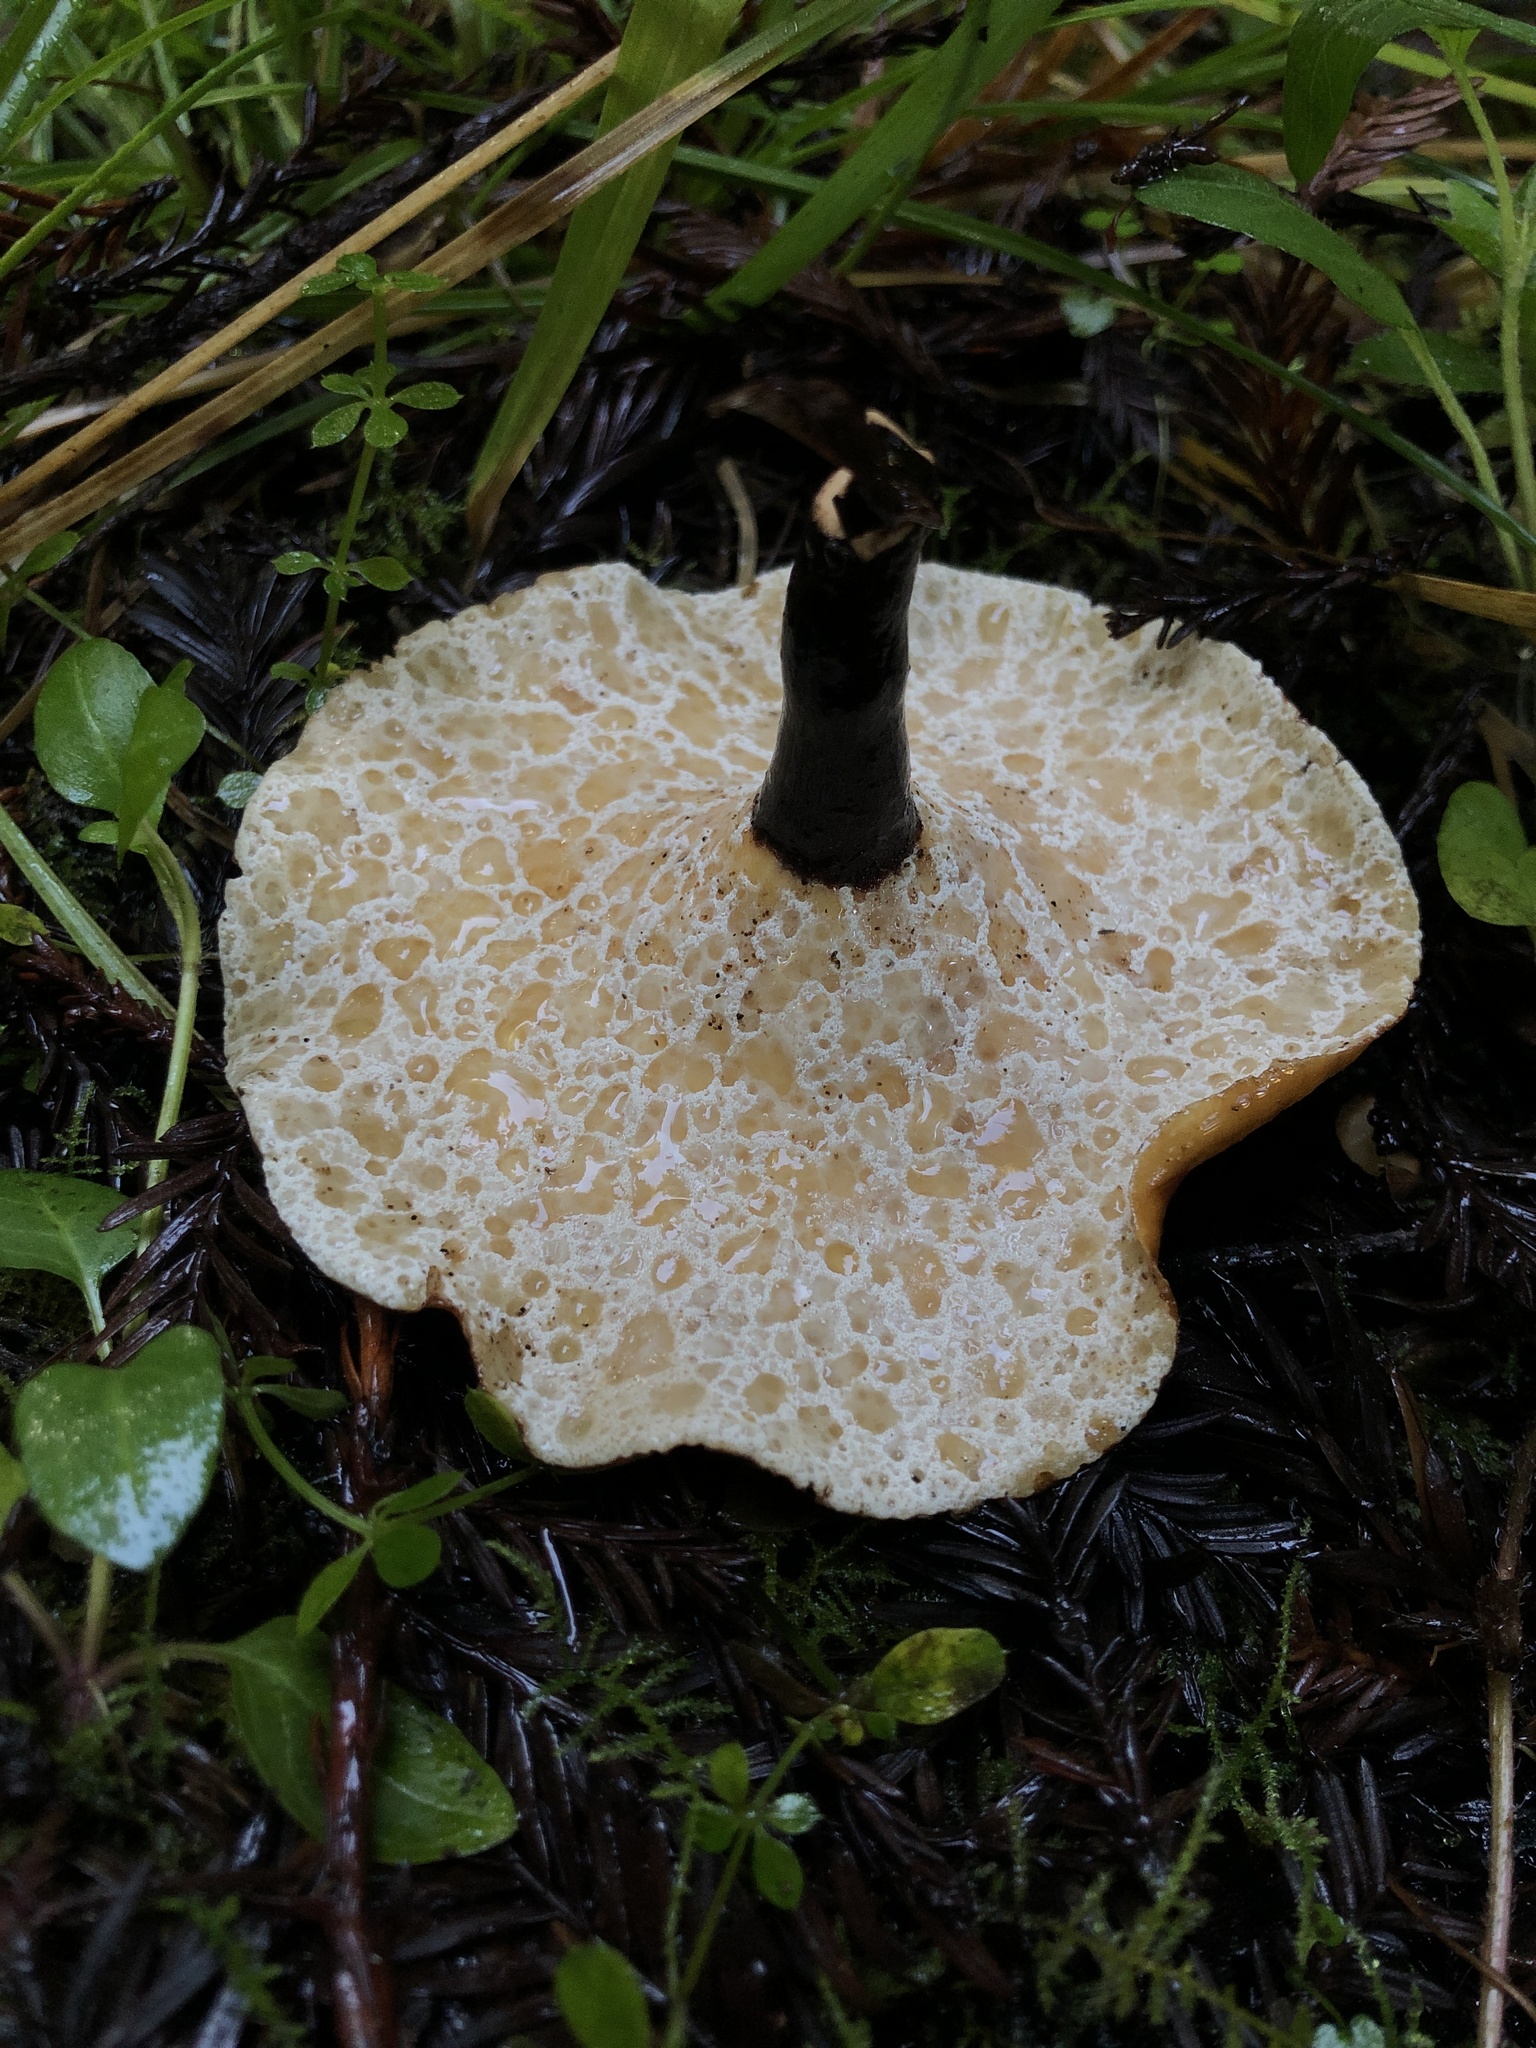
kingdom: Fungi
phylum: Basidiomycota
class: Agaricomycetes
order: Polyporales
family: Polyporaceae
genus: Picipes
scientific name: Picipes badius
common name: Bay polypore
